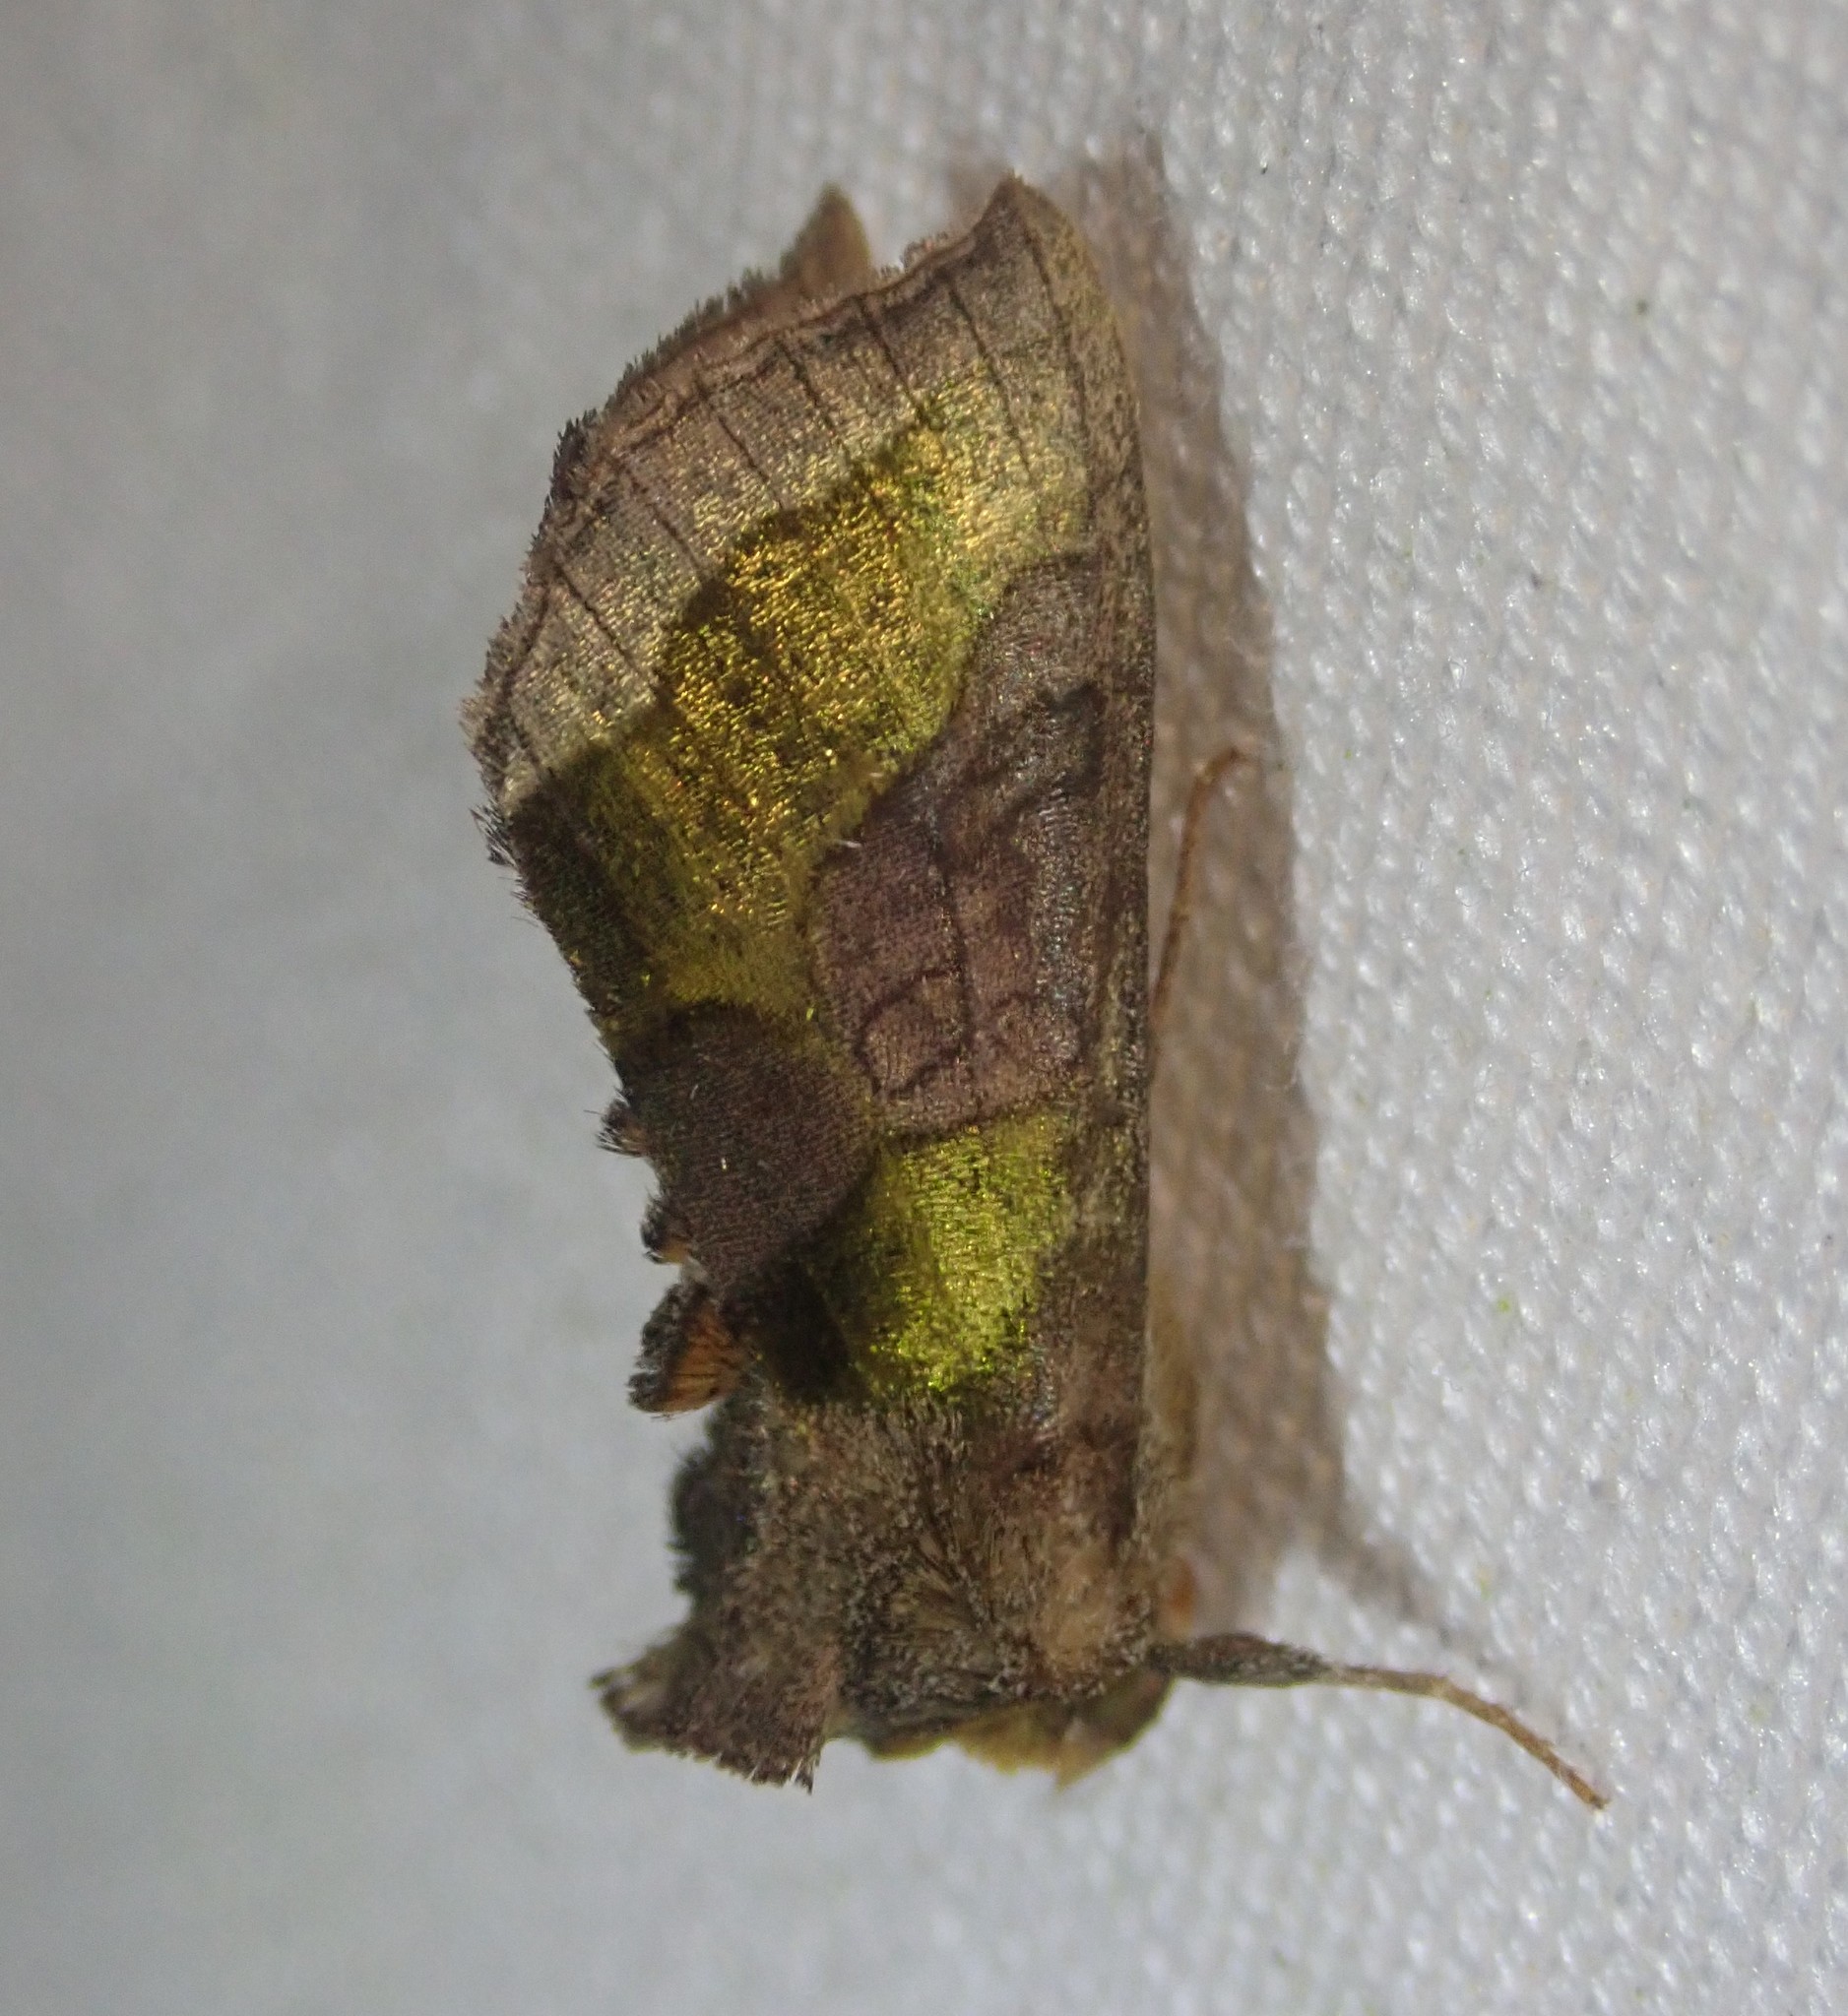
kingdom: Animalia
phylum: Arthropoda
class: Insecta
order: Lepidoptera
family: Noctuidae
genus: Diachrysia
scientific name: Diachrysia chrysitis
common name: Burnished brass
